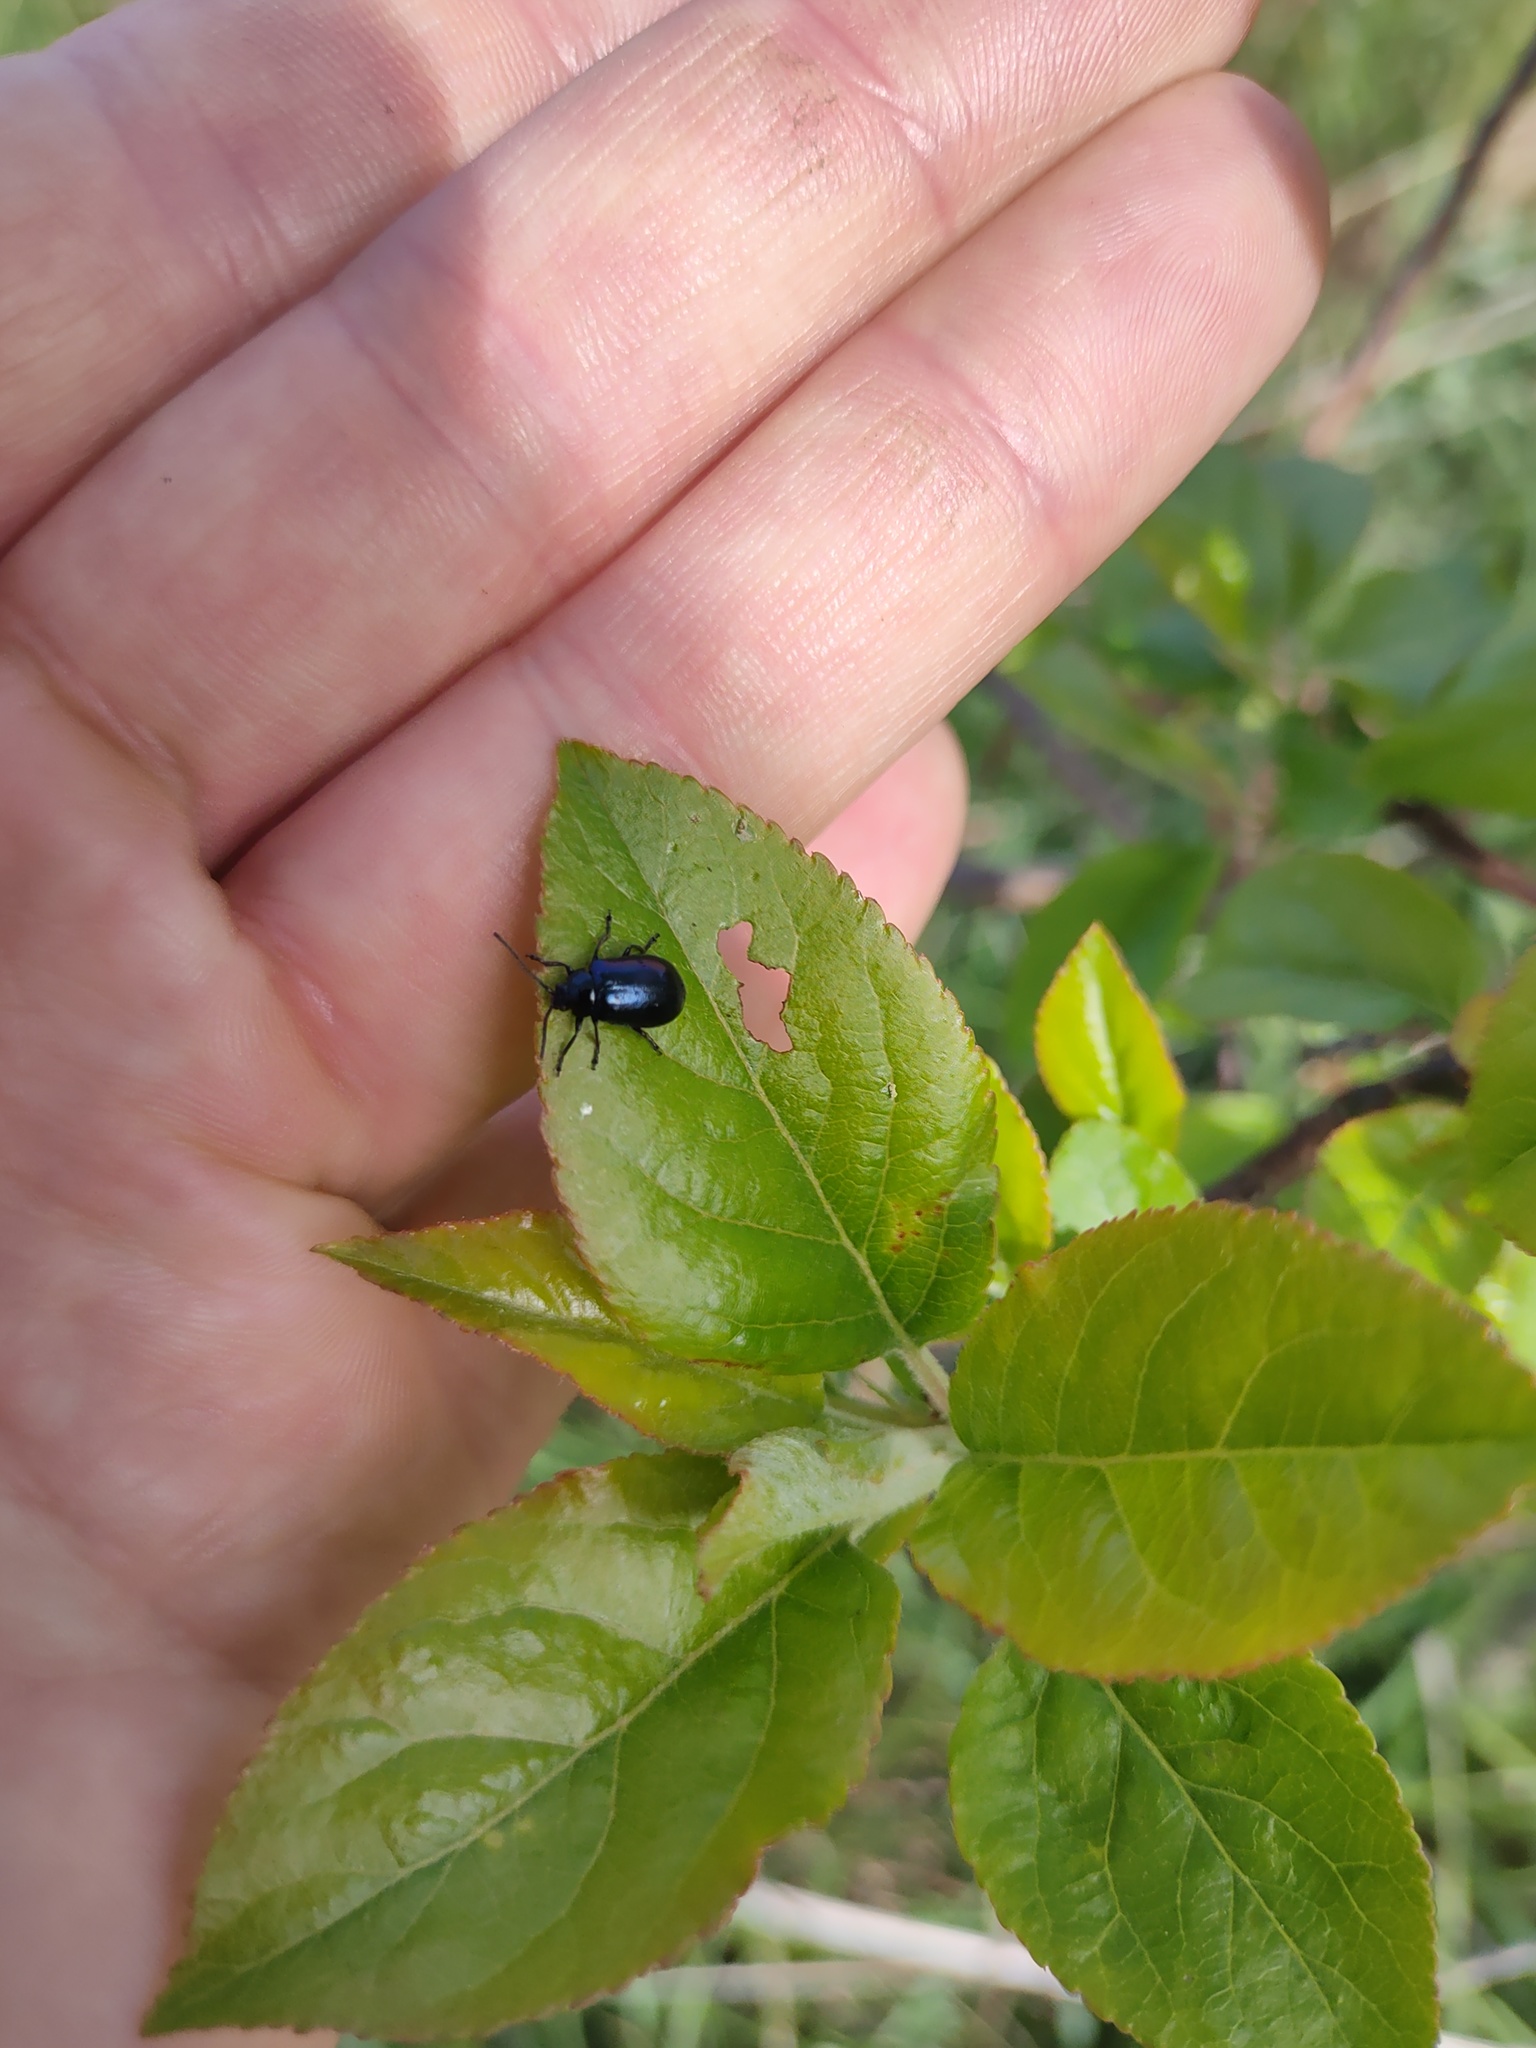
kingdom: Animalia
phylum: Arthropoda
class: Insecta
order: Coleoptera
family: Chrysomelidae
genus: Agelastica
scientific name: Agelastica alni
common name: Alder leaf beetle
